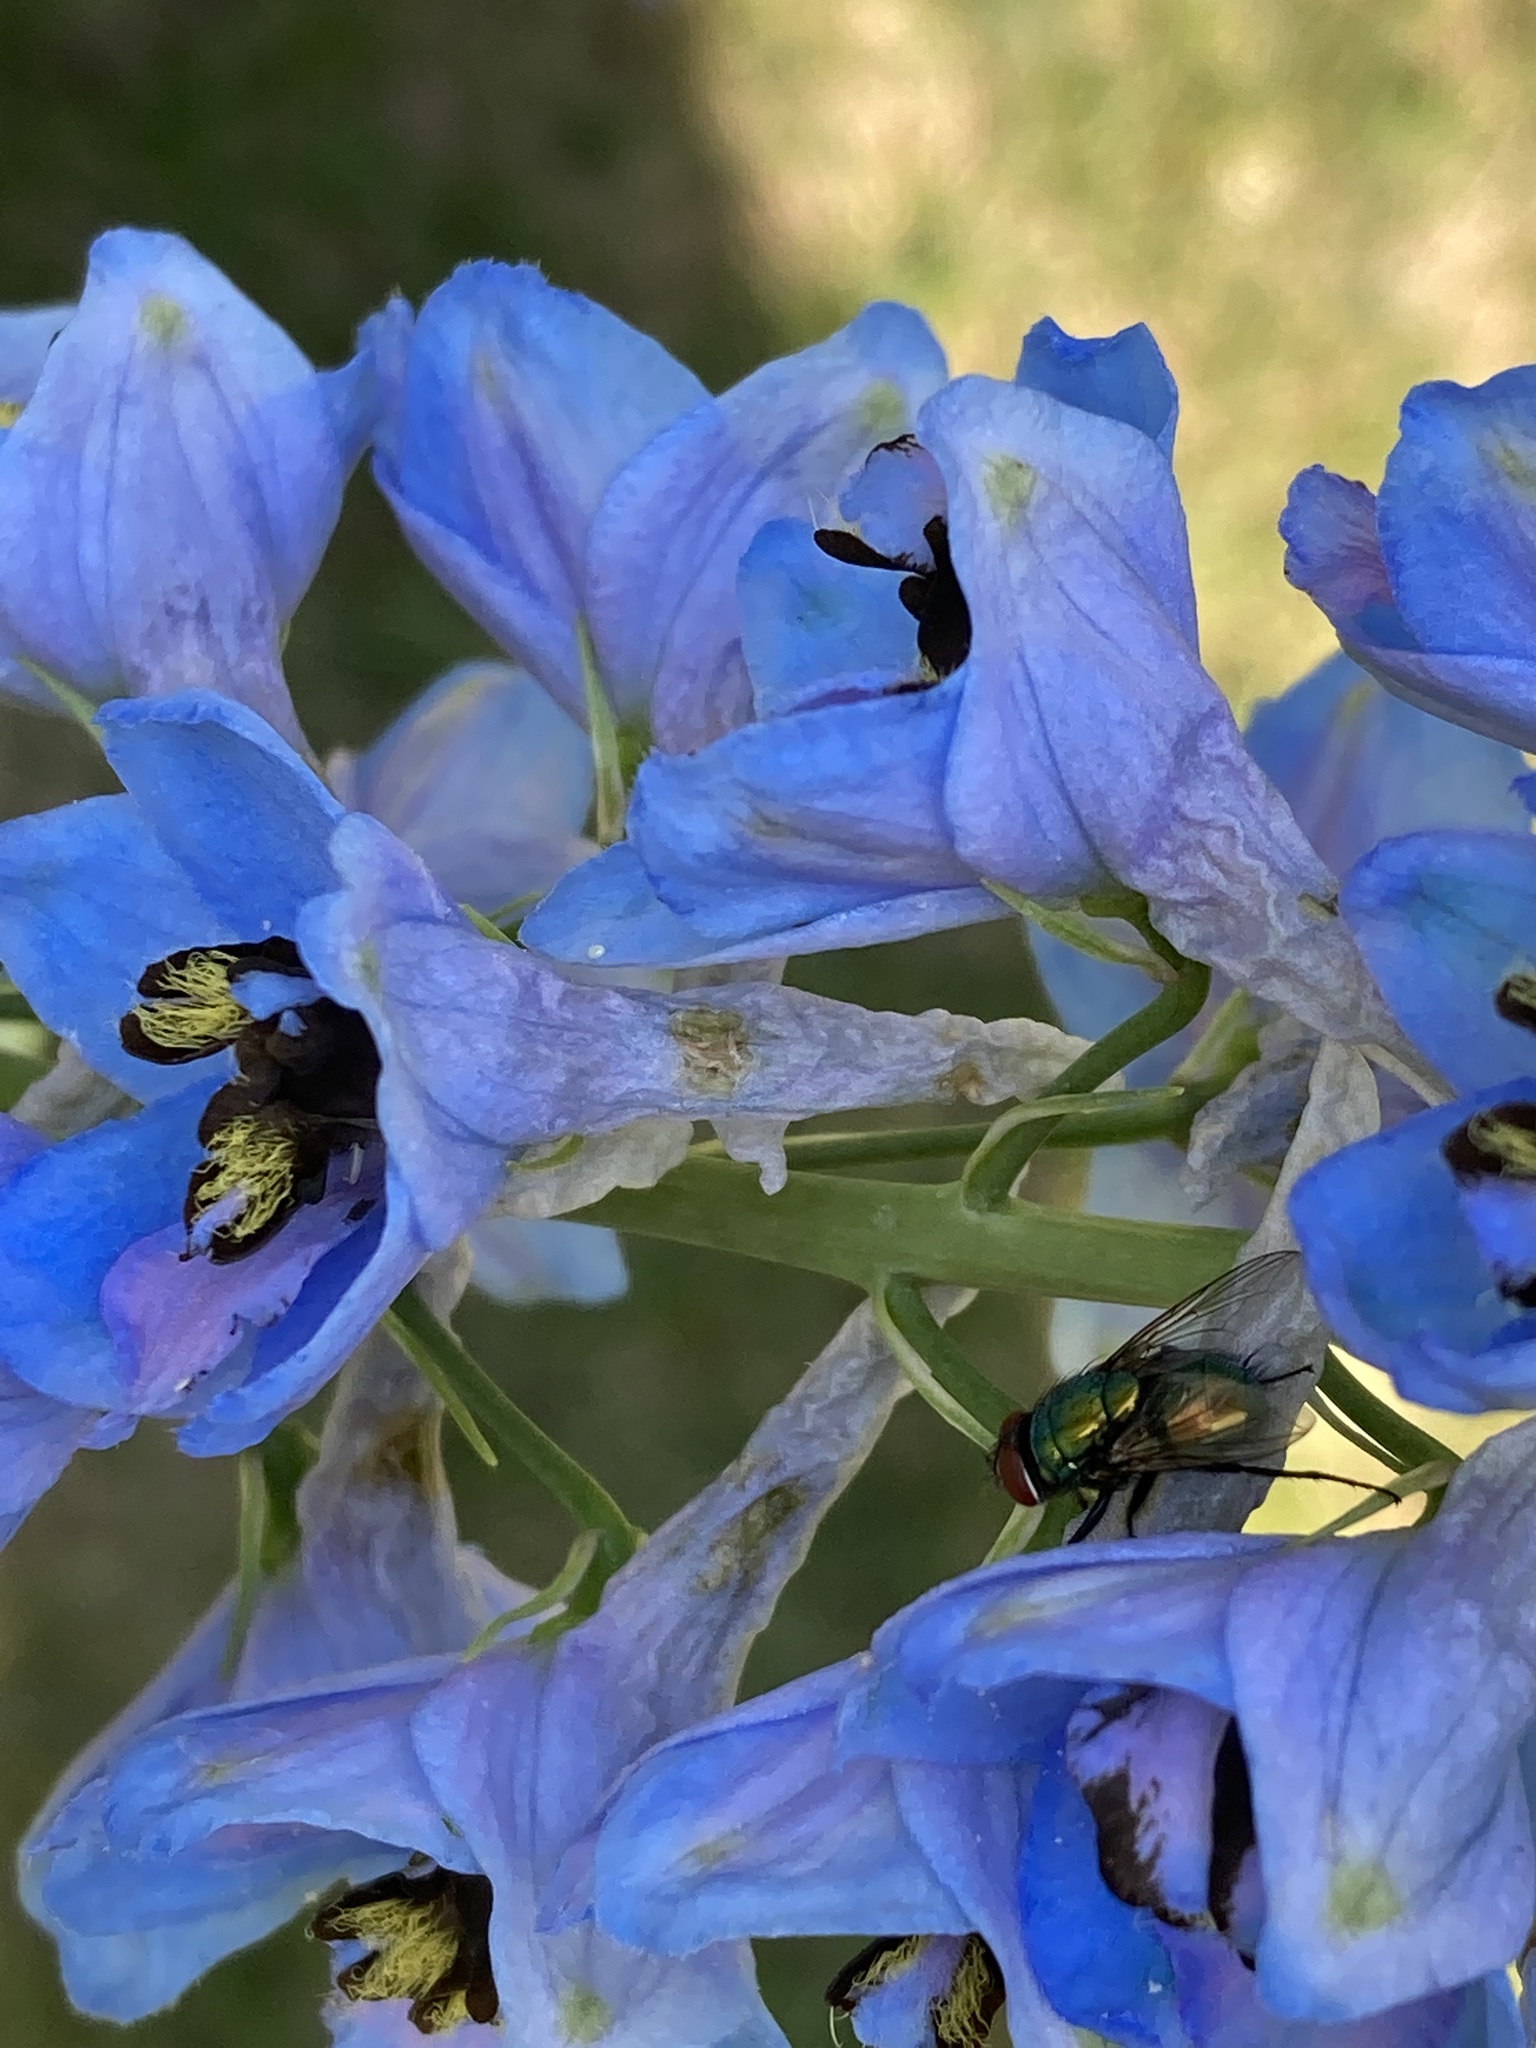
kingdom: Animalia
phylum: Arthropoda
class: Insecta
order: Diptera
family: Calliphoridae
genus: Lucilia
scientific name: Lucilia sericata
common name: Blow fly
